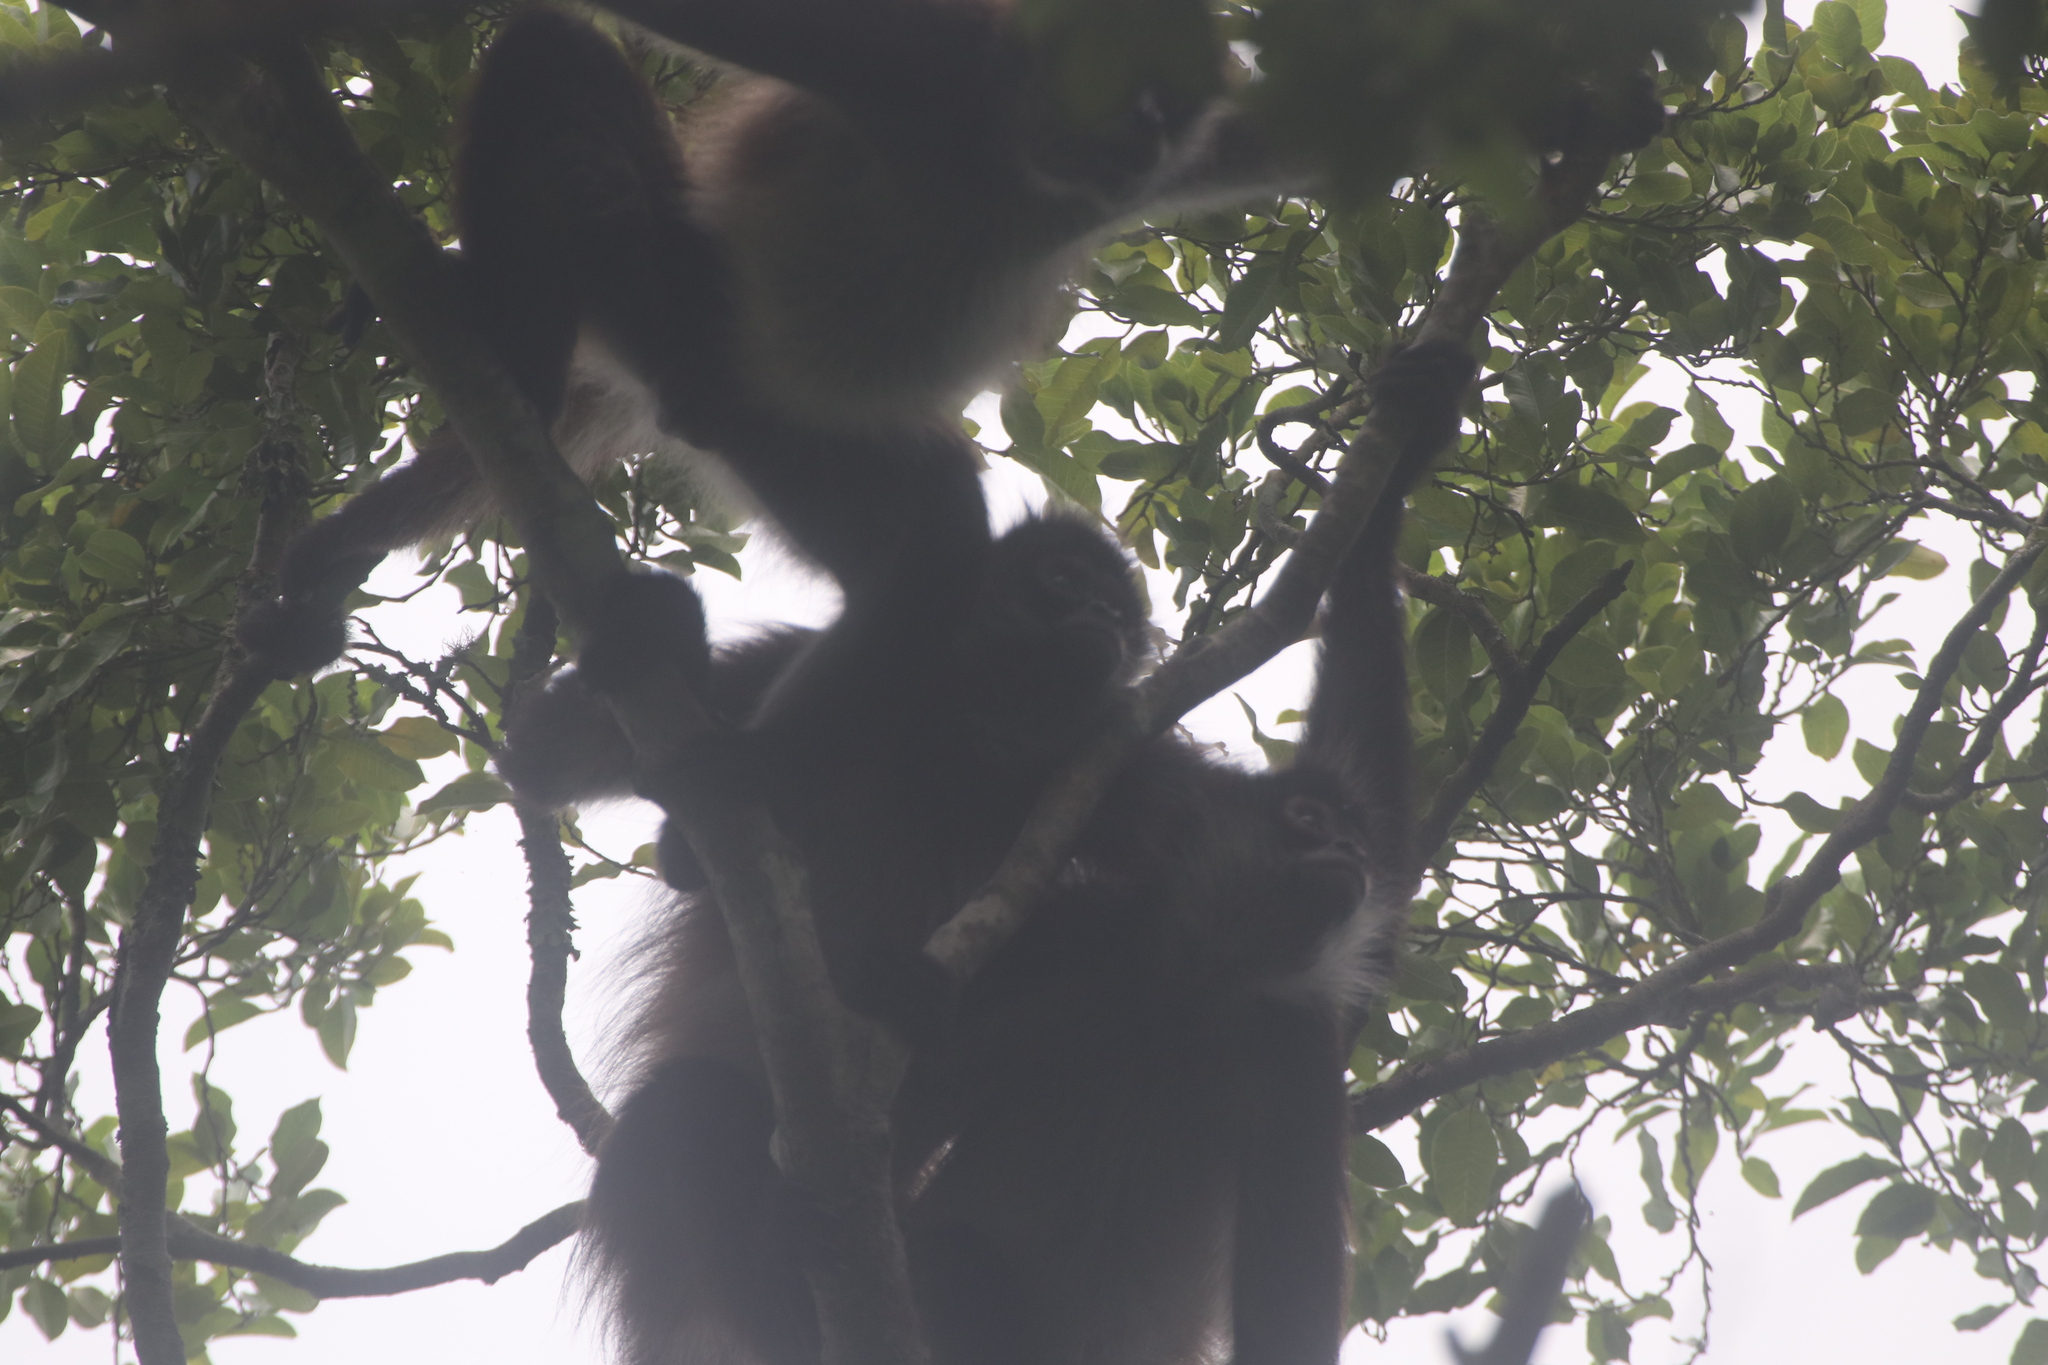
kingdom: Animalia
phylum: Chordata
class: Mammalia
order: Primates
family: Atelidae
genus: Ateles
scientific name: Ateles geoffroyi
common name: Black-handed spider monkey
